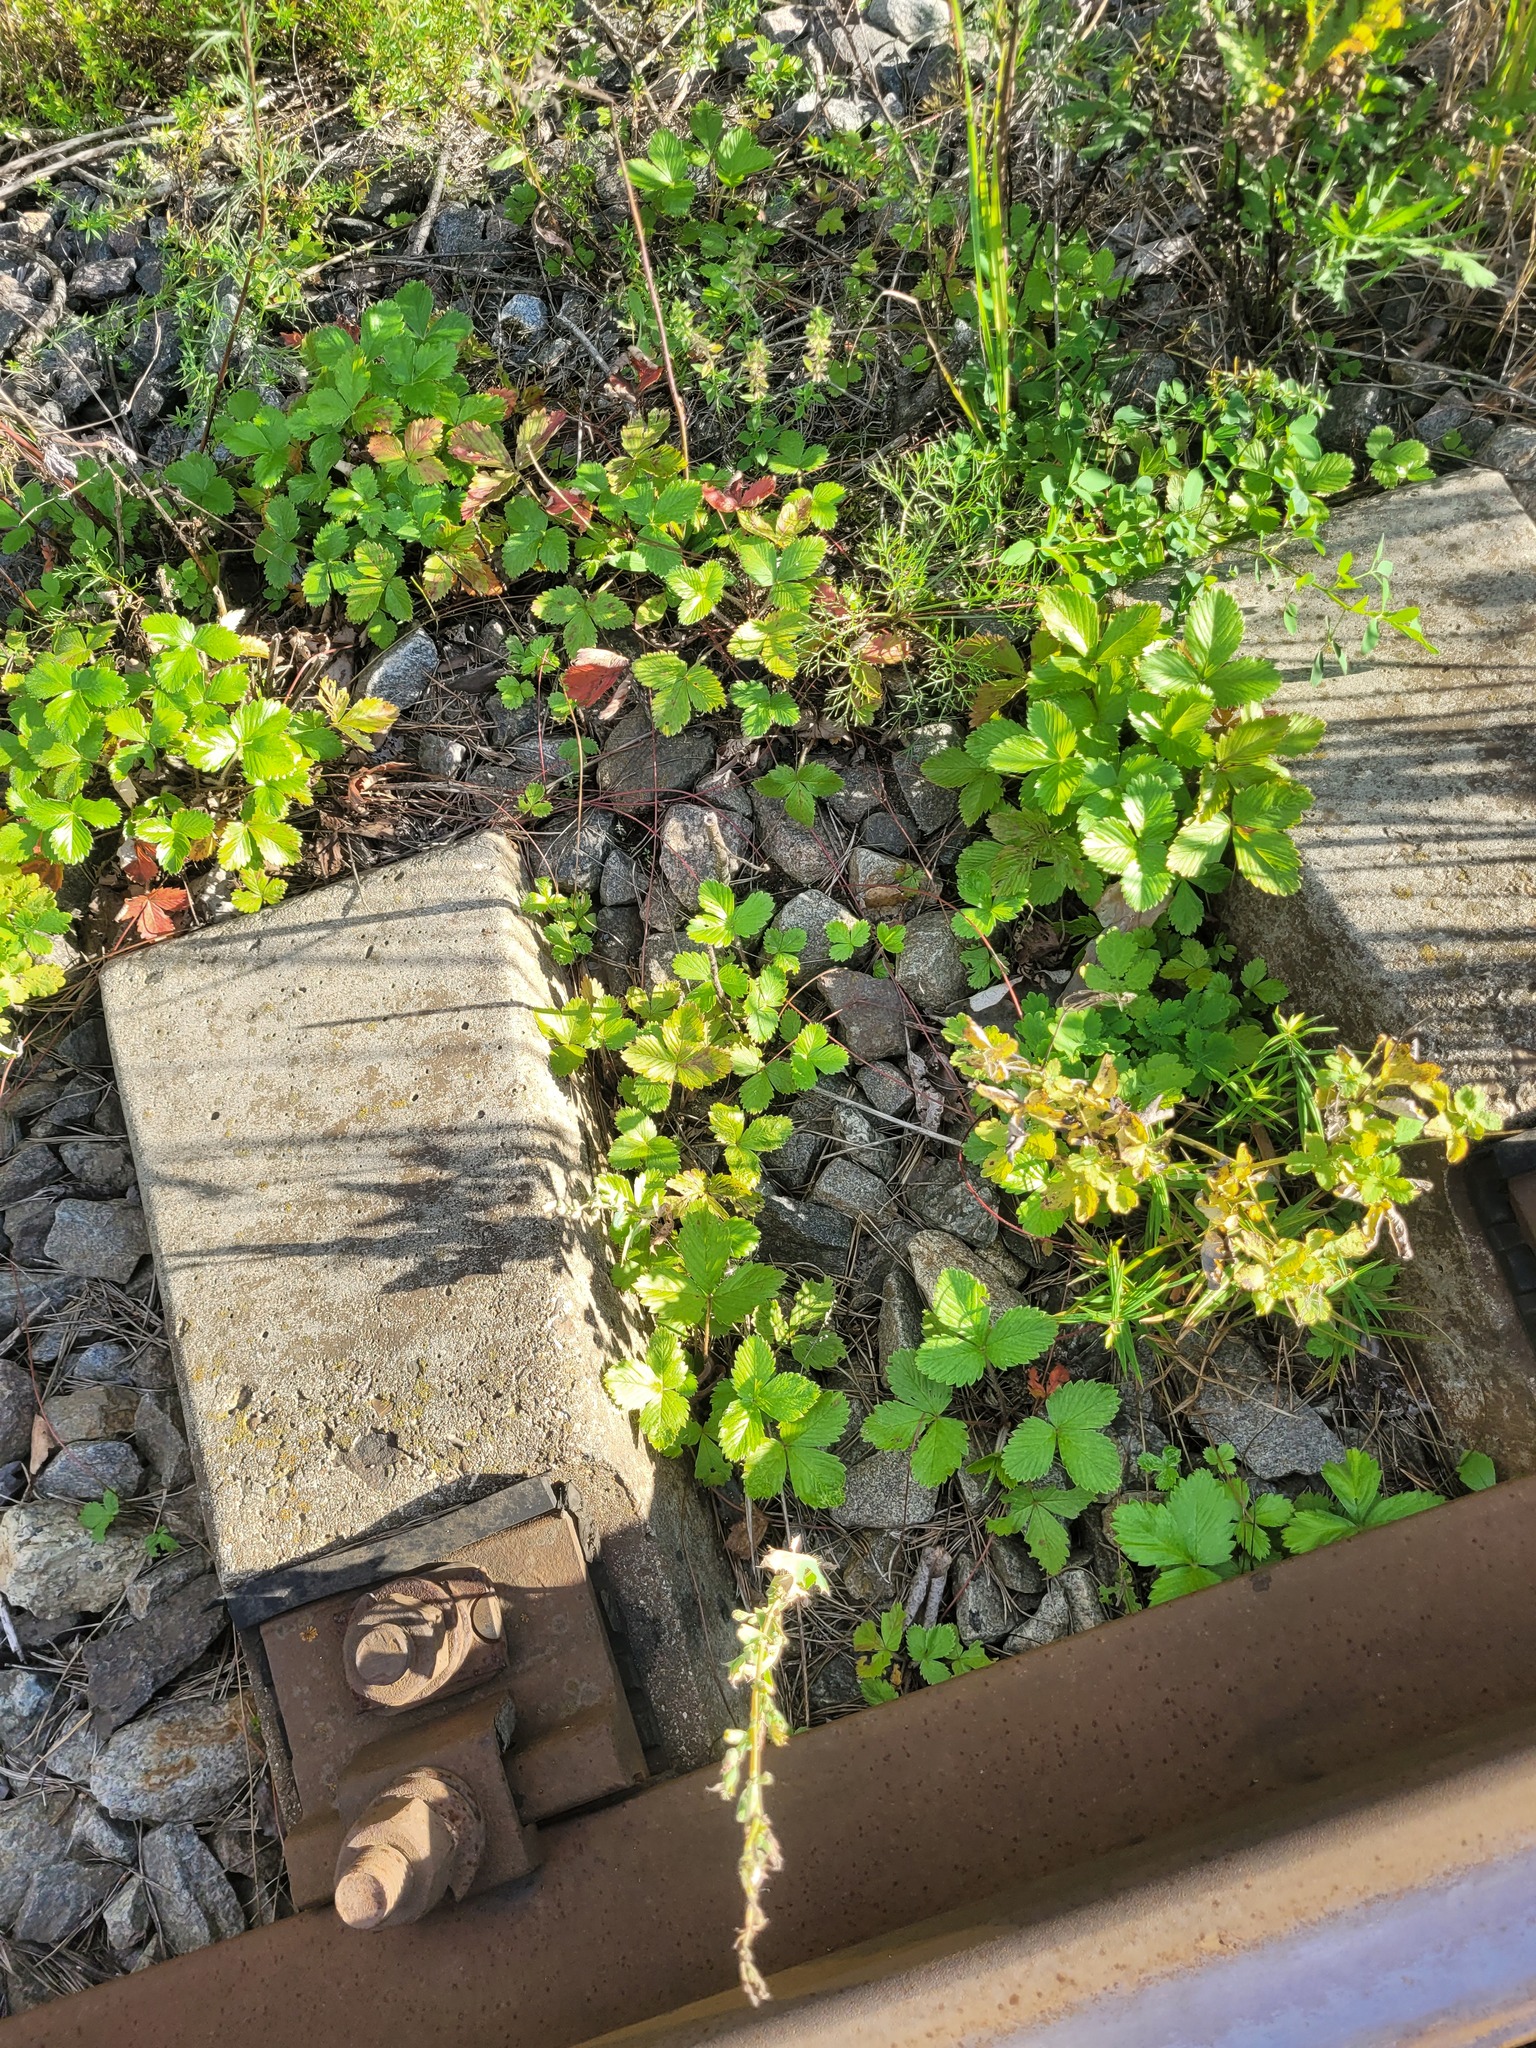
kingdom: Plantae
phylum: Tracheophyta
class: Magnoliopsida
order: Rosales
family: Rosaceae
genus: Fragaria
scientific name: Fragaria viridis
